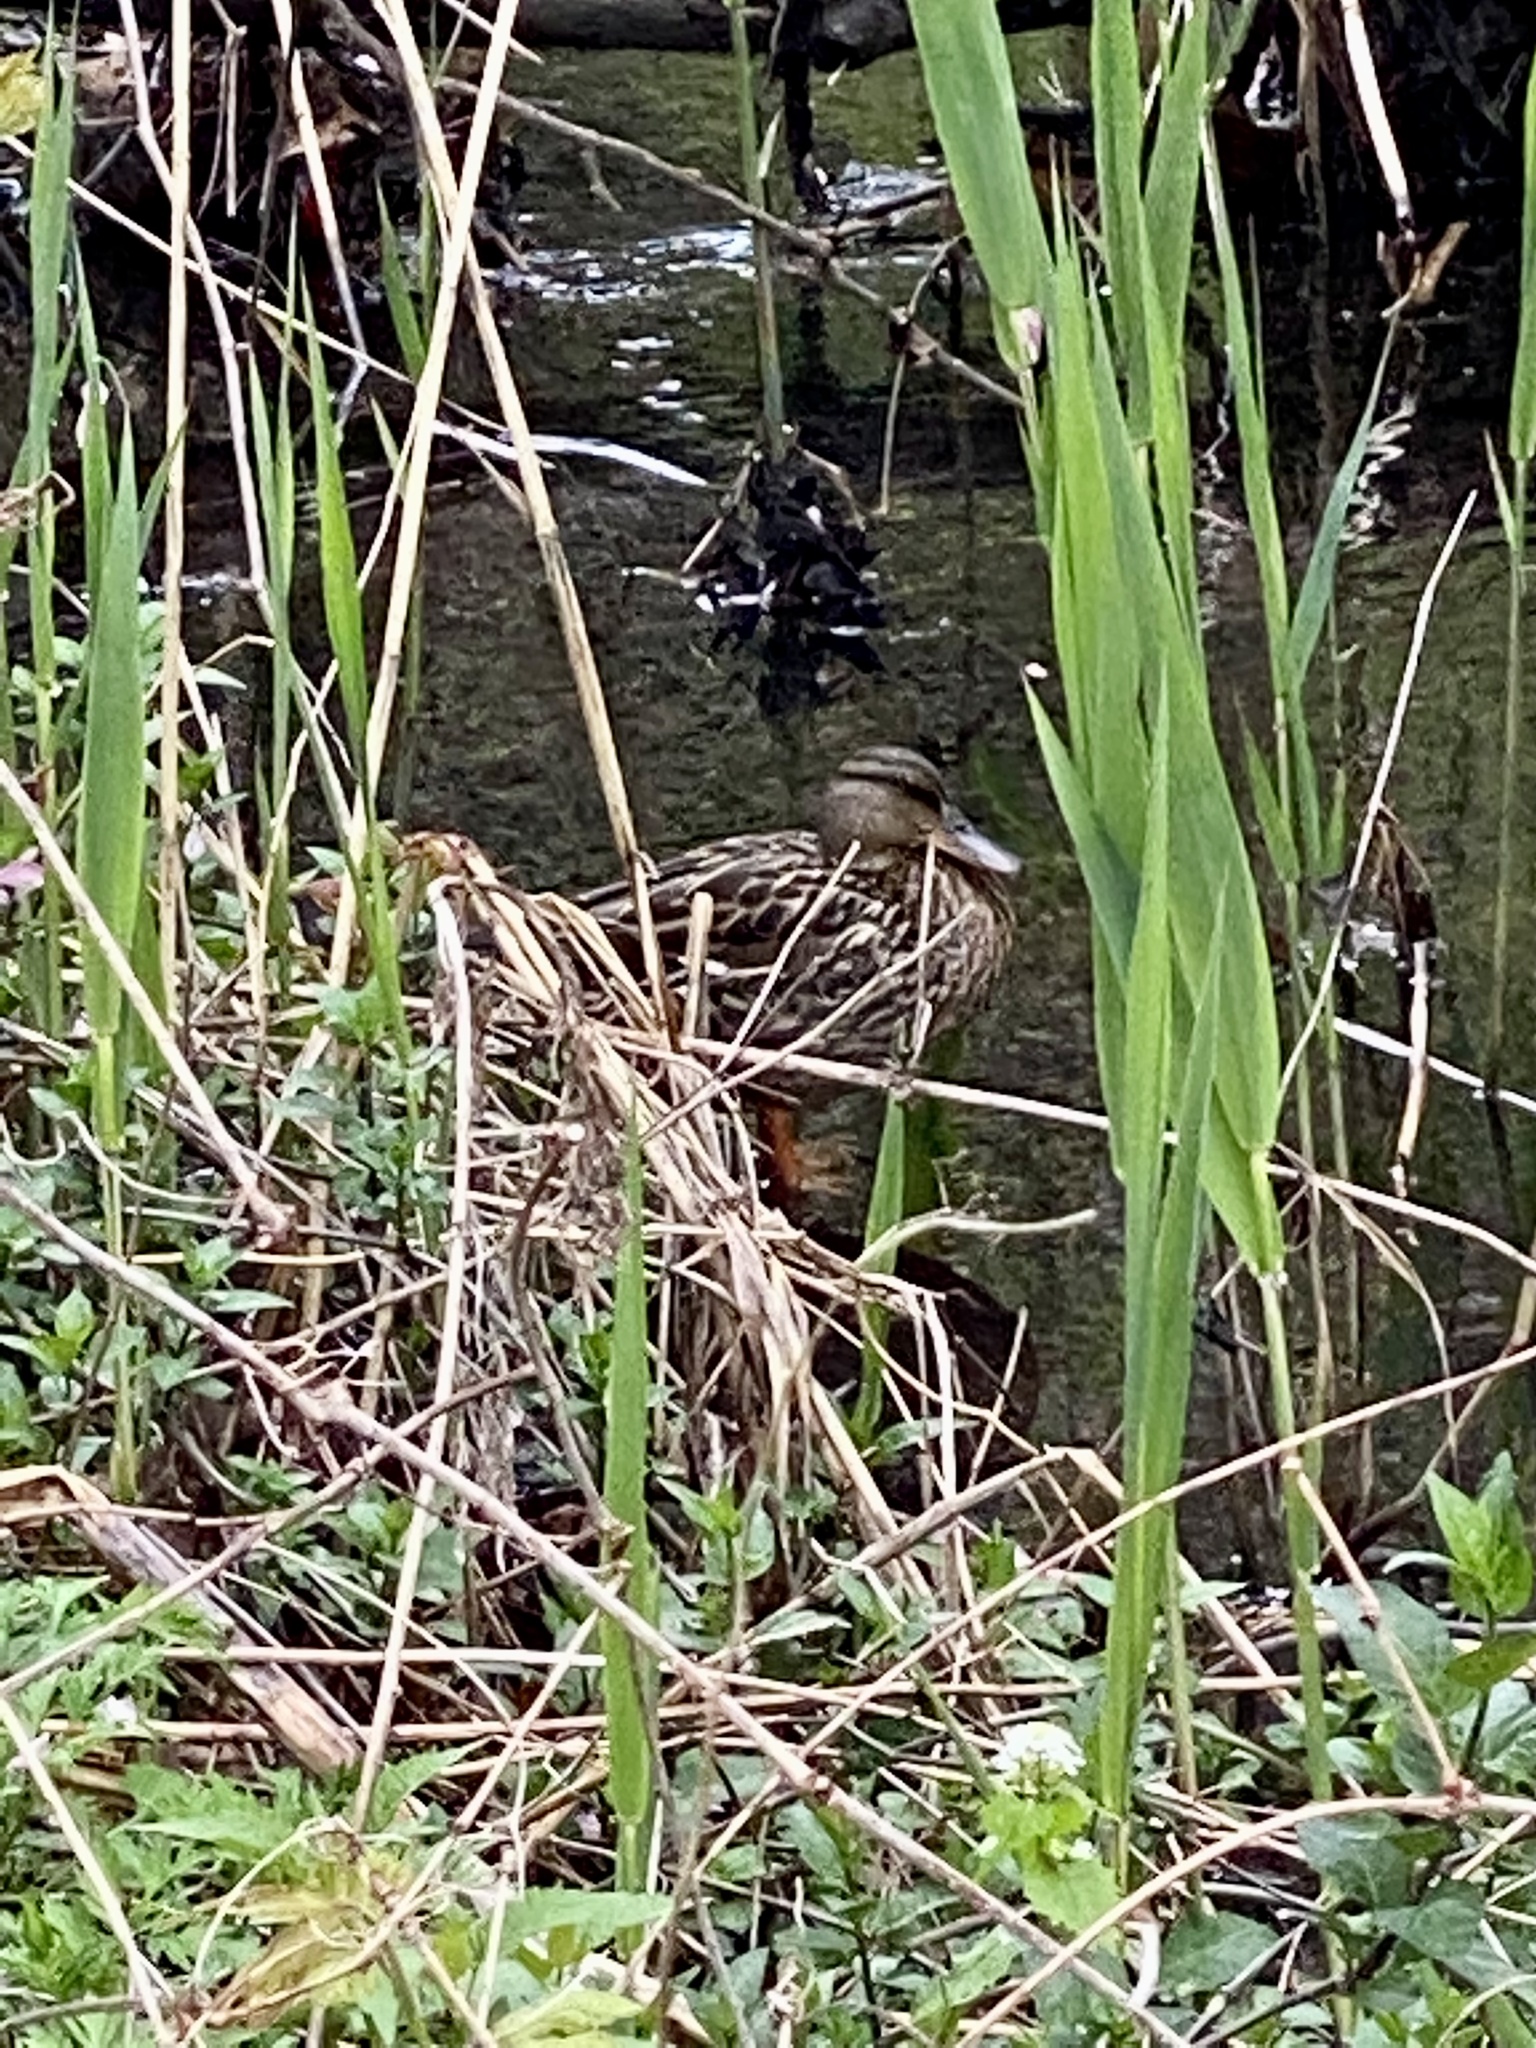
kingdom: Animalia
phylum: Chordata
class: Aves
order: Anseriformes
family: Anatidae
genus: Anas
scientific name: Anas platyrhynchos
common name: Mallard
